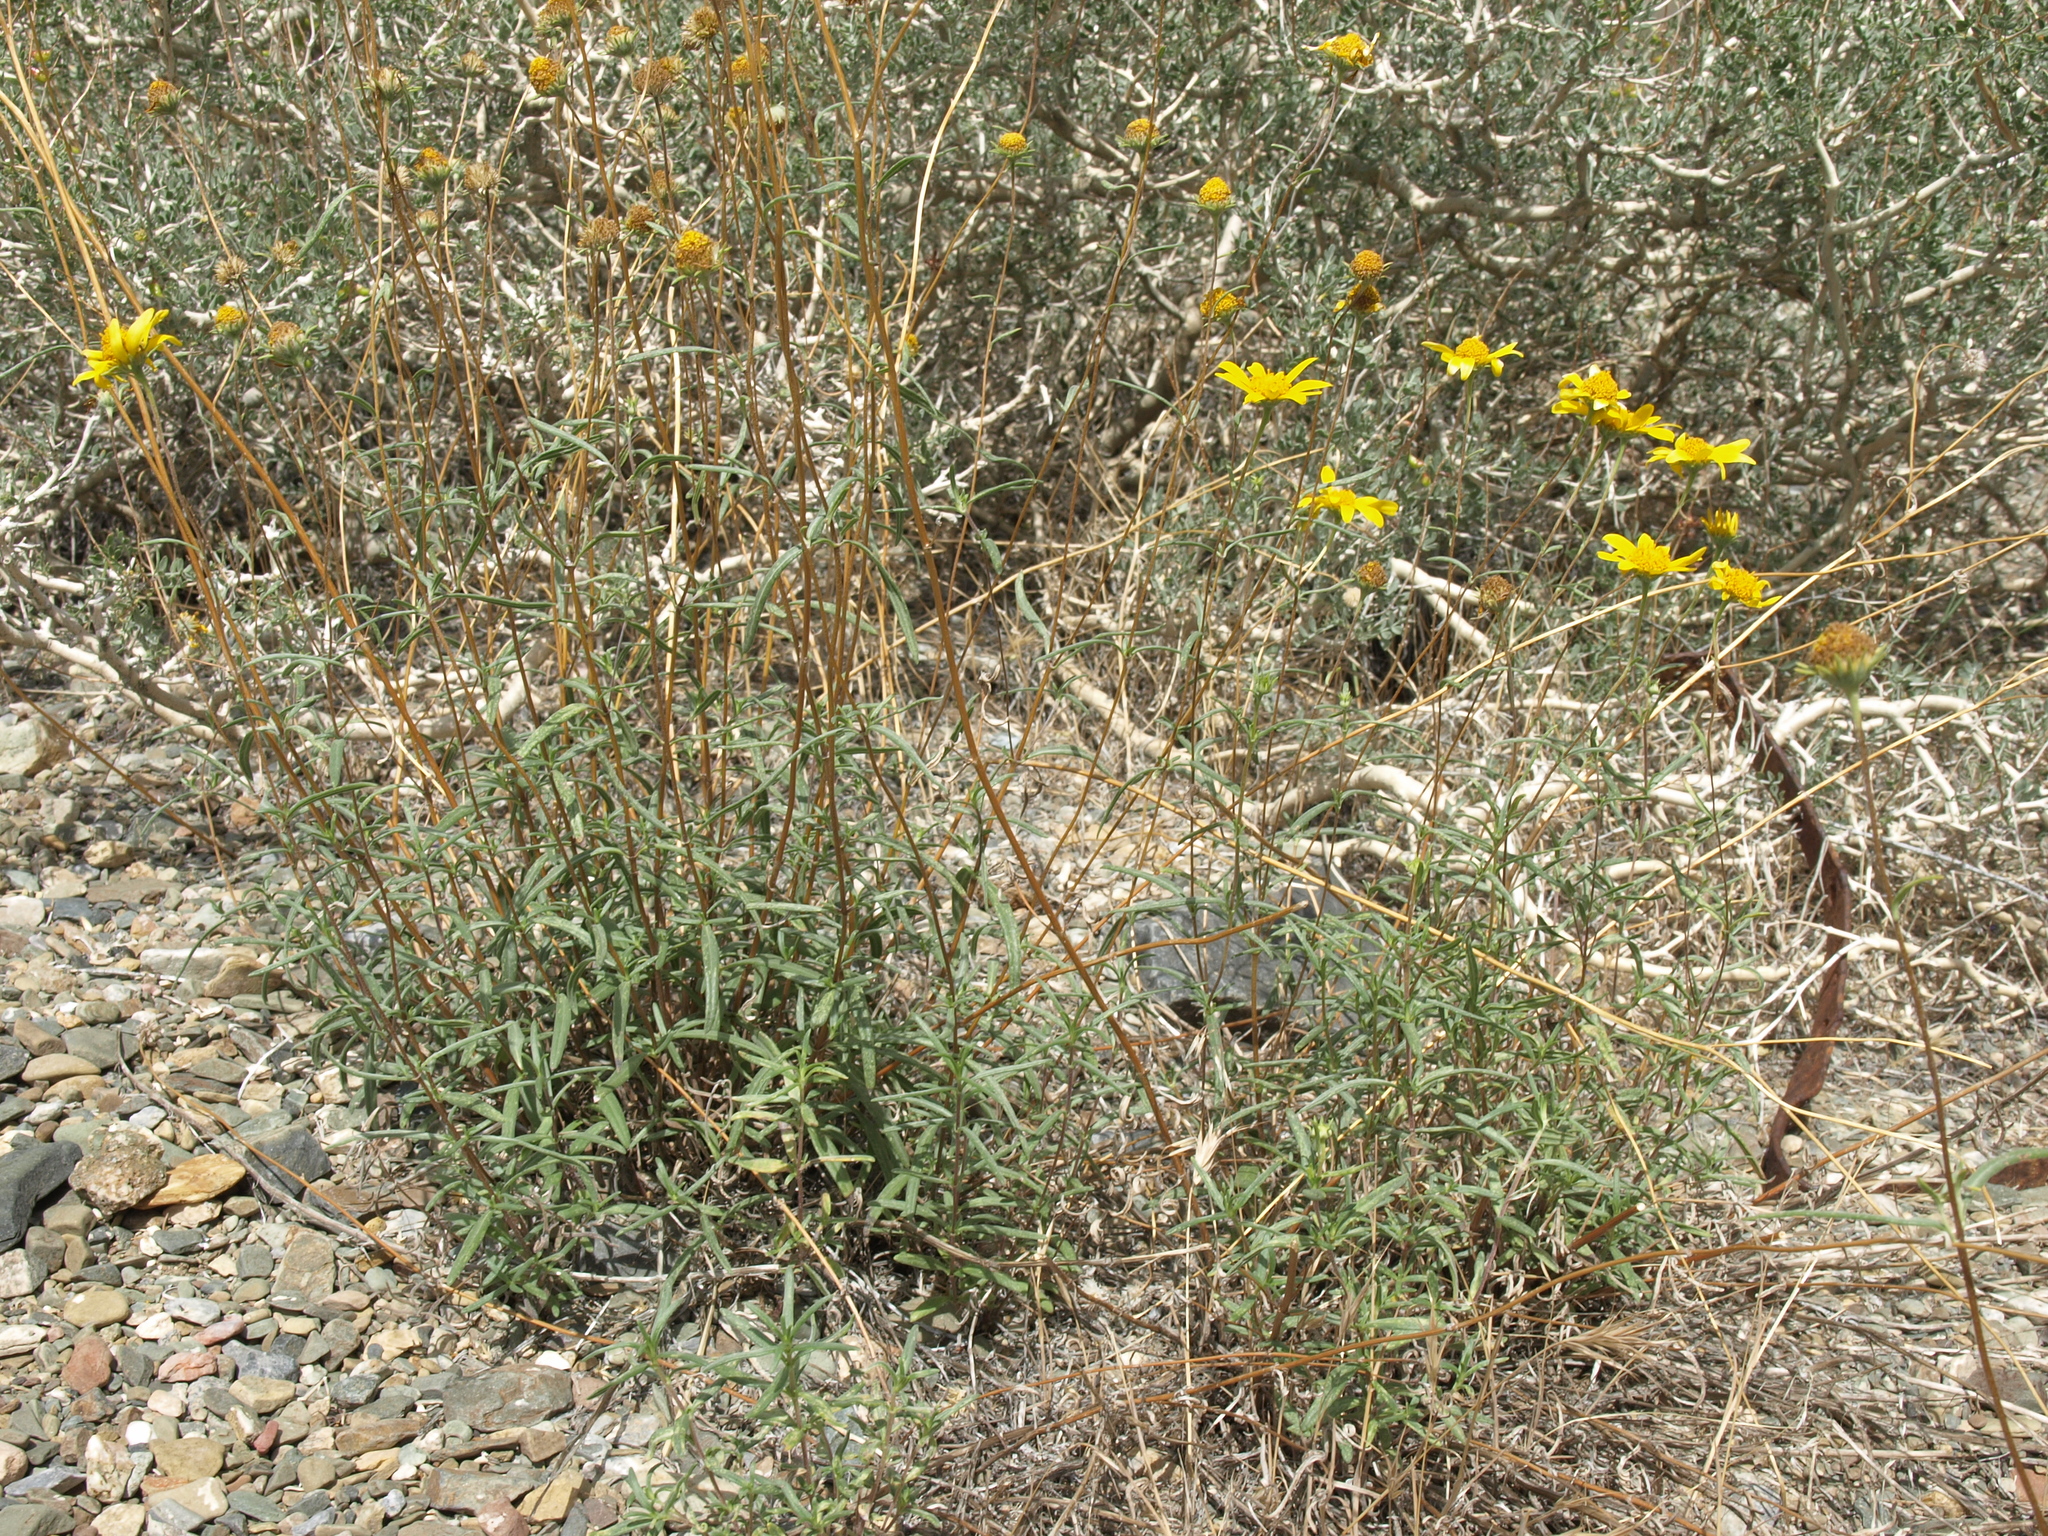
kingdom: Plantae
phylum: Tracheophyta
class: Magnoliopsida
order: Asterales
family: Asteraceae
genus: Heliomeris
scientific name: Heliomeris multiflora
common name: Showy goldeneye
